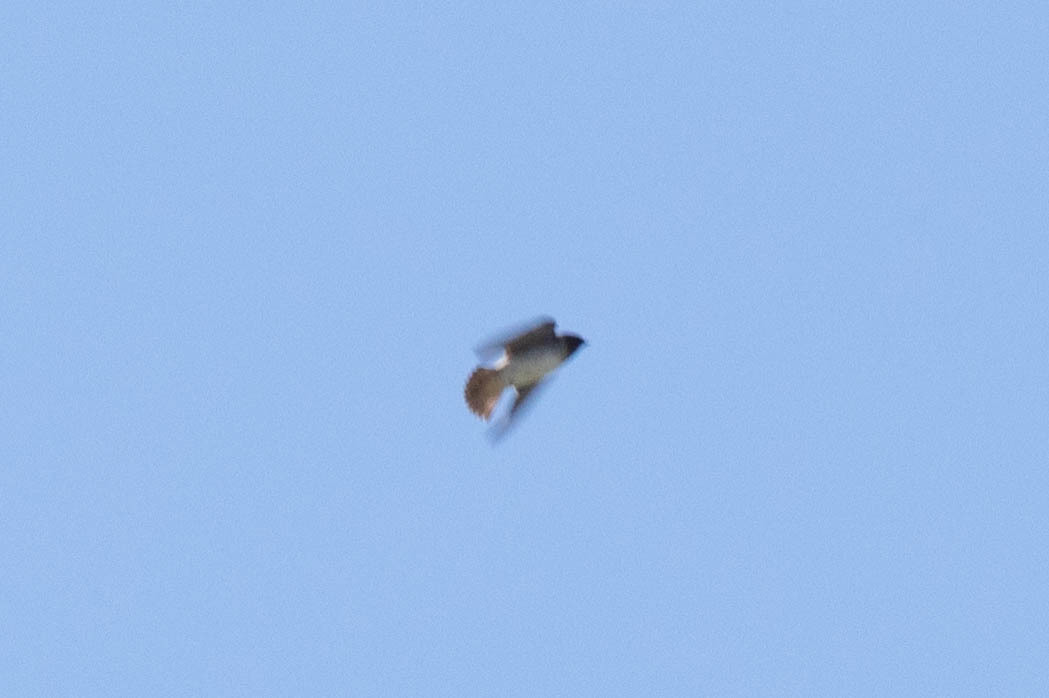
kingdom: Animalia
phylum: Chordata
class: Aves
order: Passeriformes
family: Hirundinidae
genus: Petrochelidon
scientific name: Petrochelidon pyrrhonota
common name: American cliff swallow
